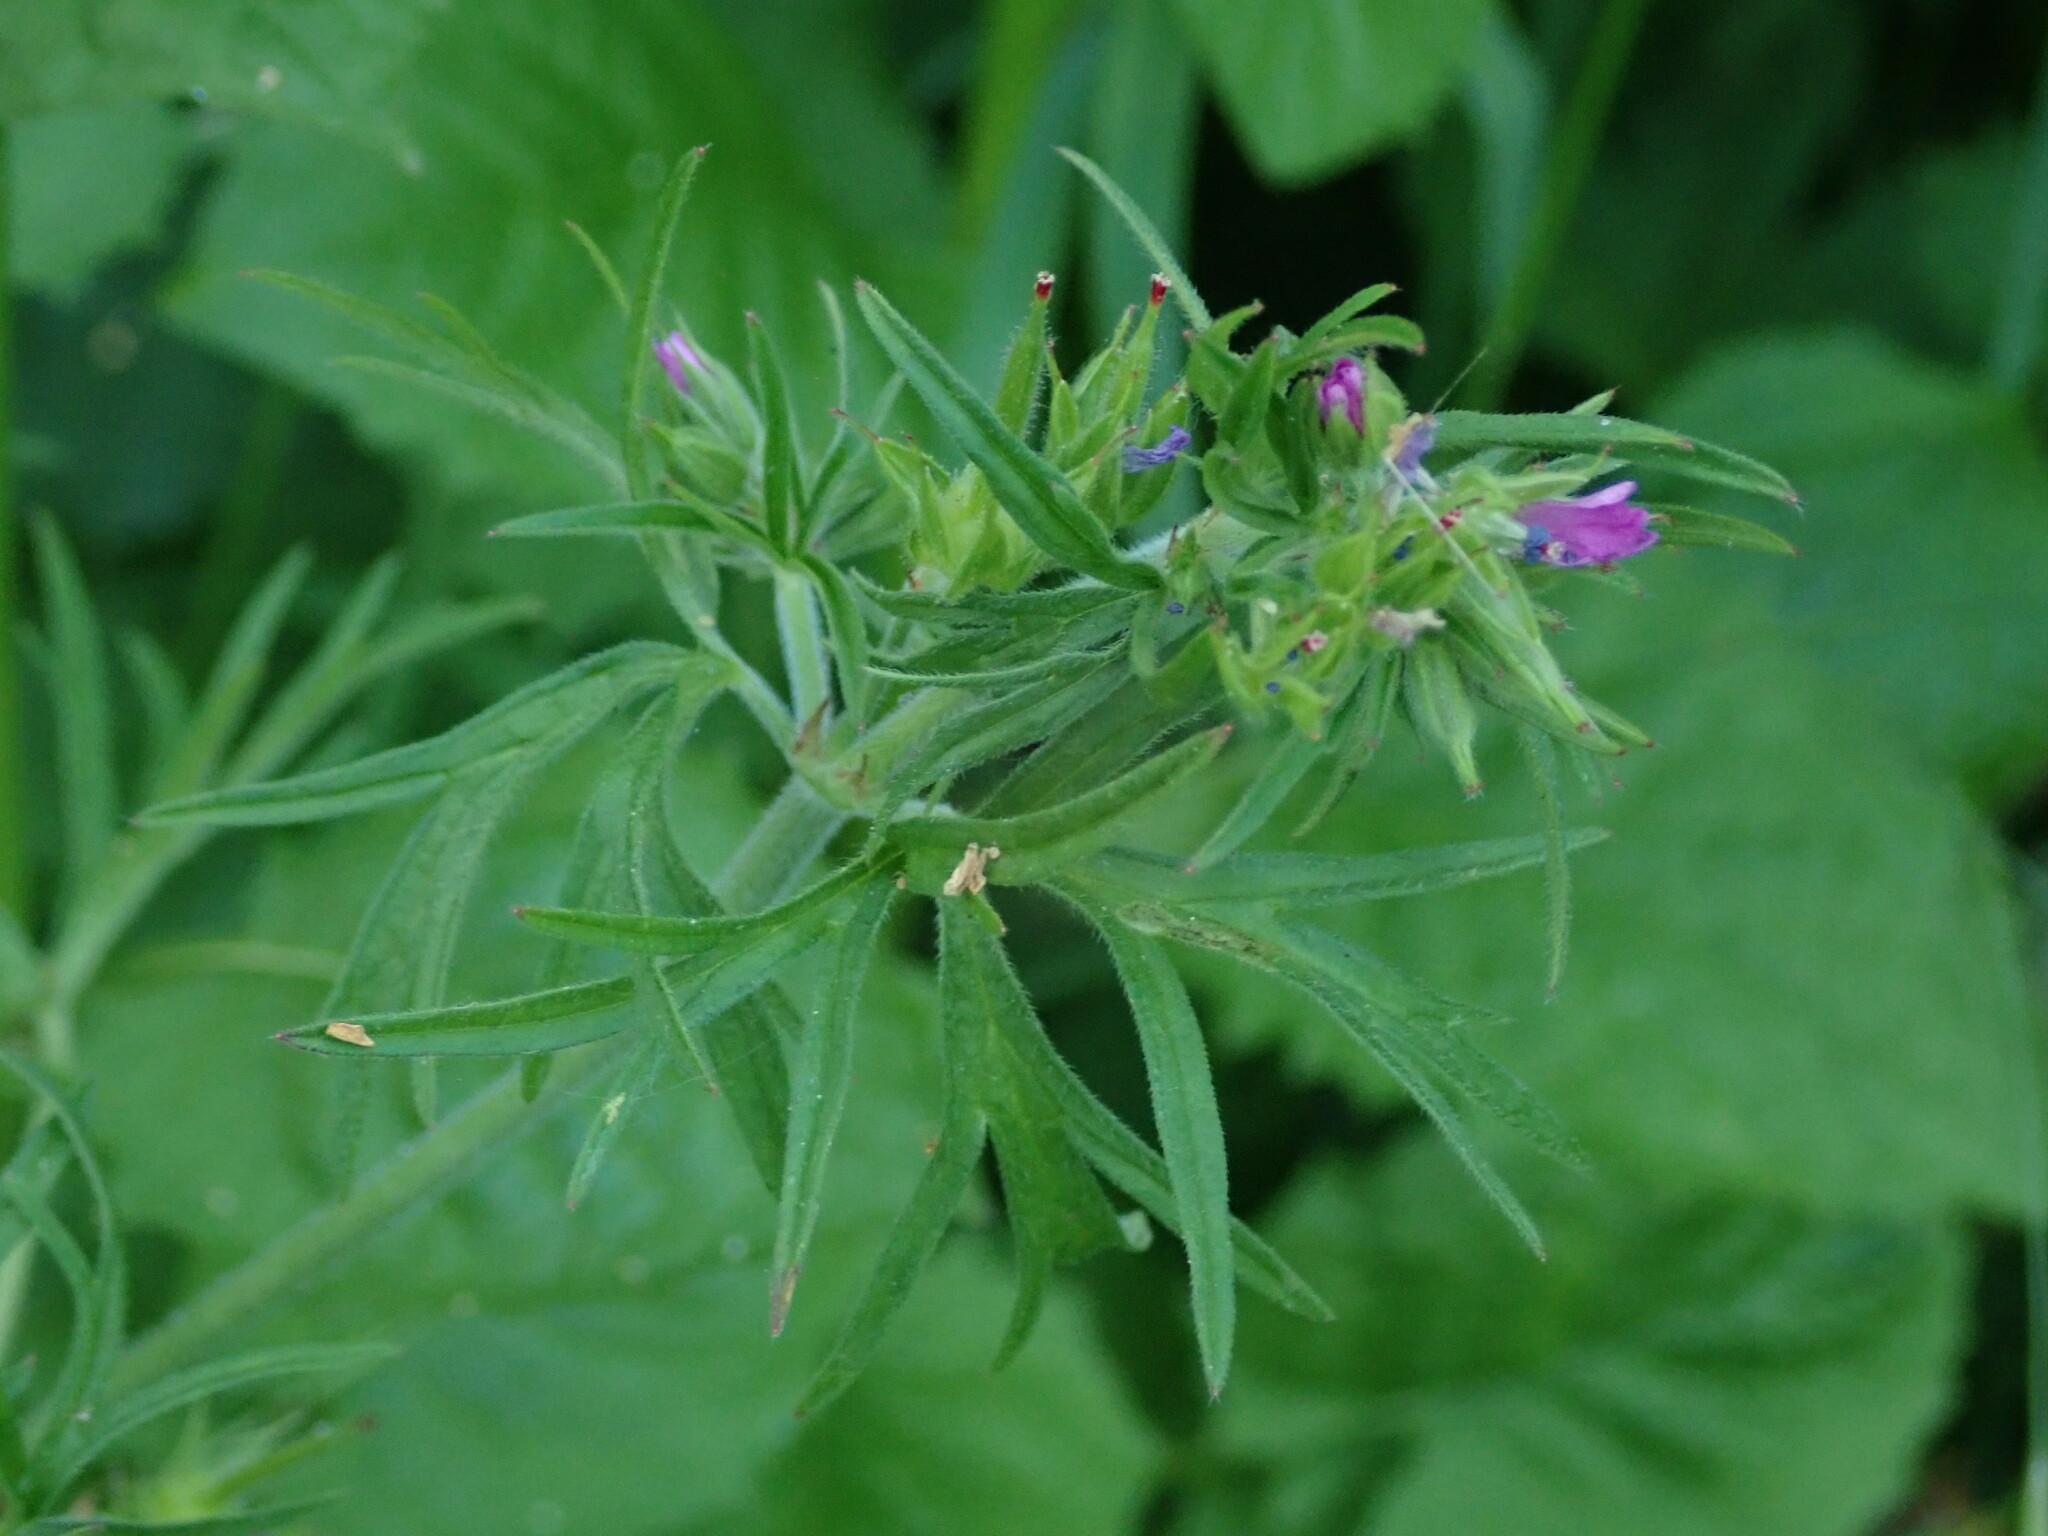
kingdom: Plantae
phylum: Tracheophyta
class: Magnoliopsida
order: Geraniales
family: Geraniaceae
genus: Geranium
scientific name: Geranium dissectum
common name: Cut-leaved crane's-bill
